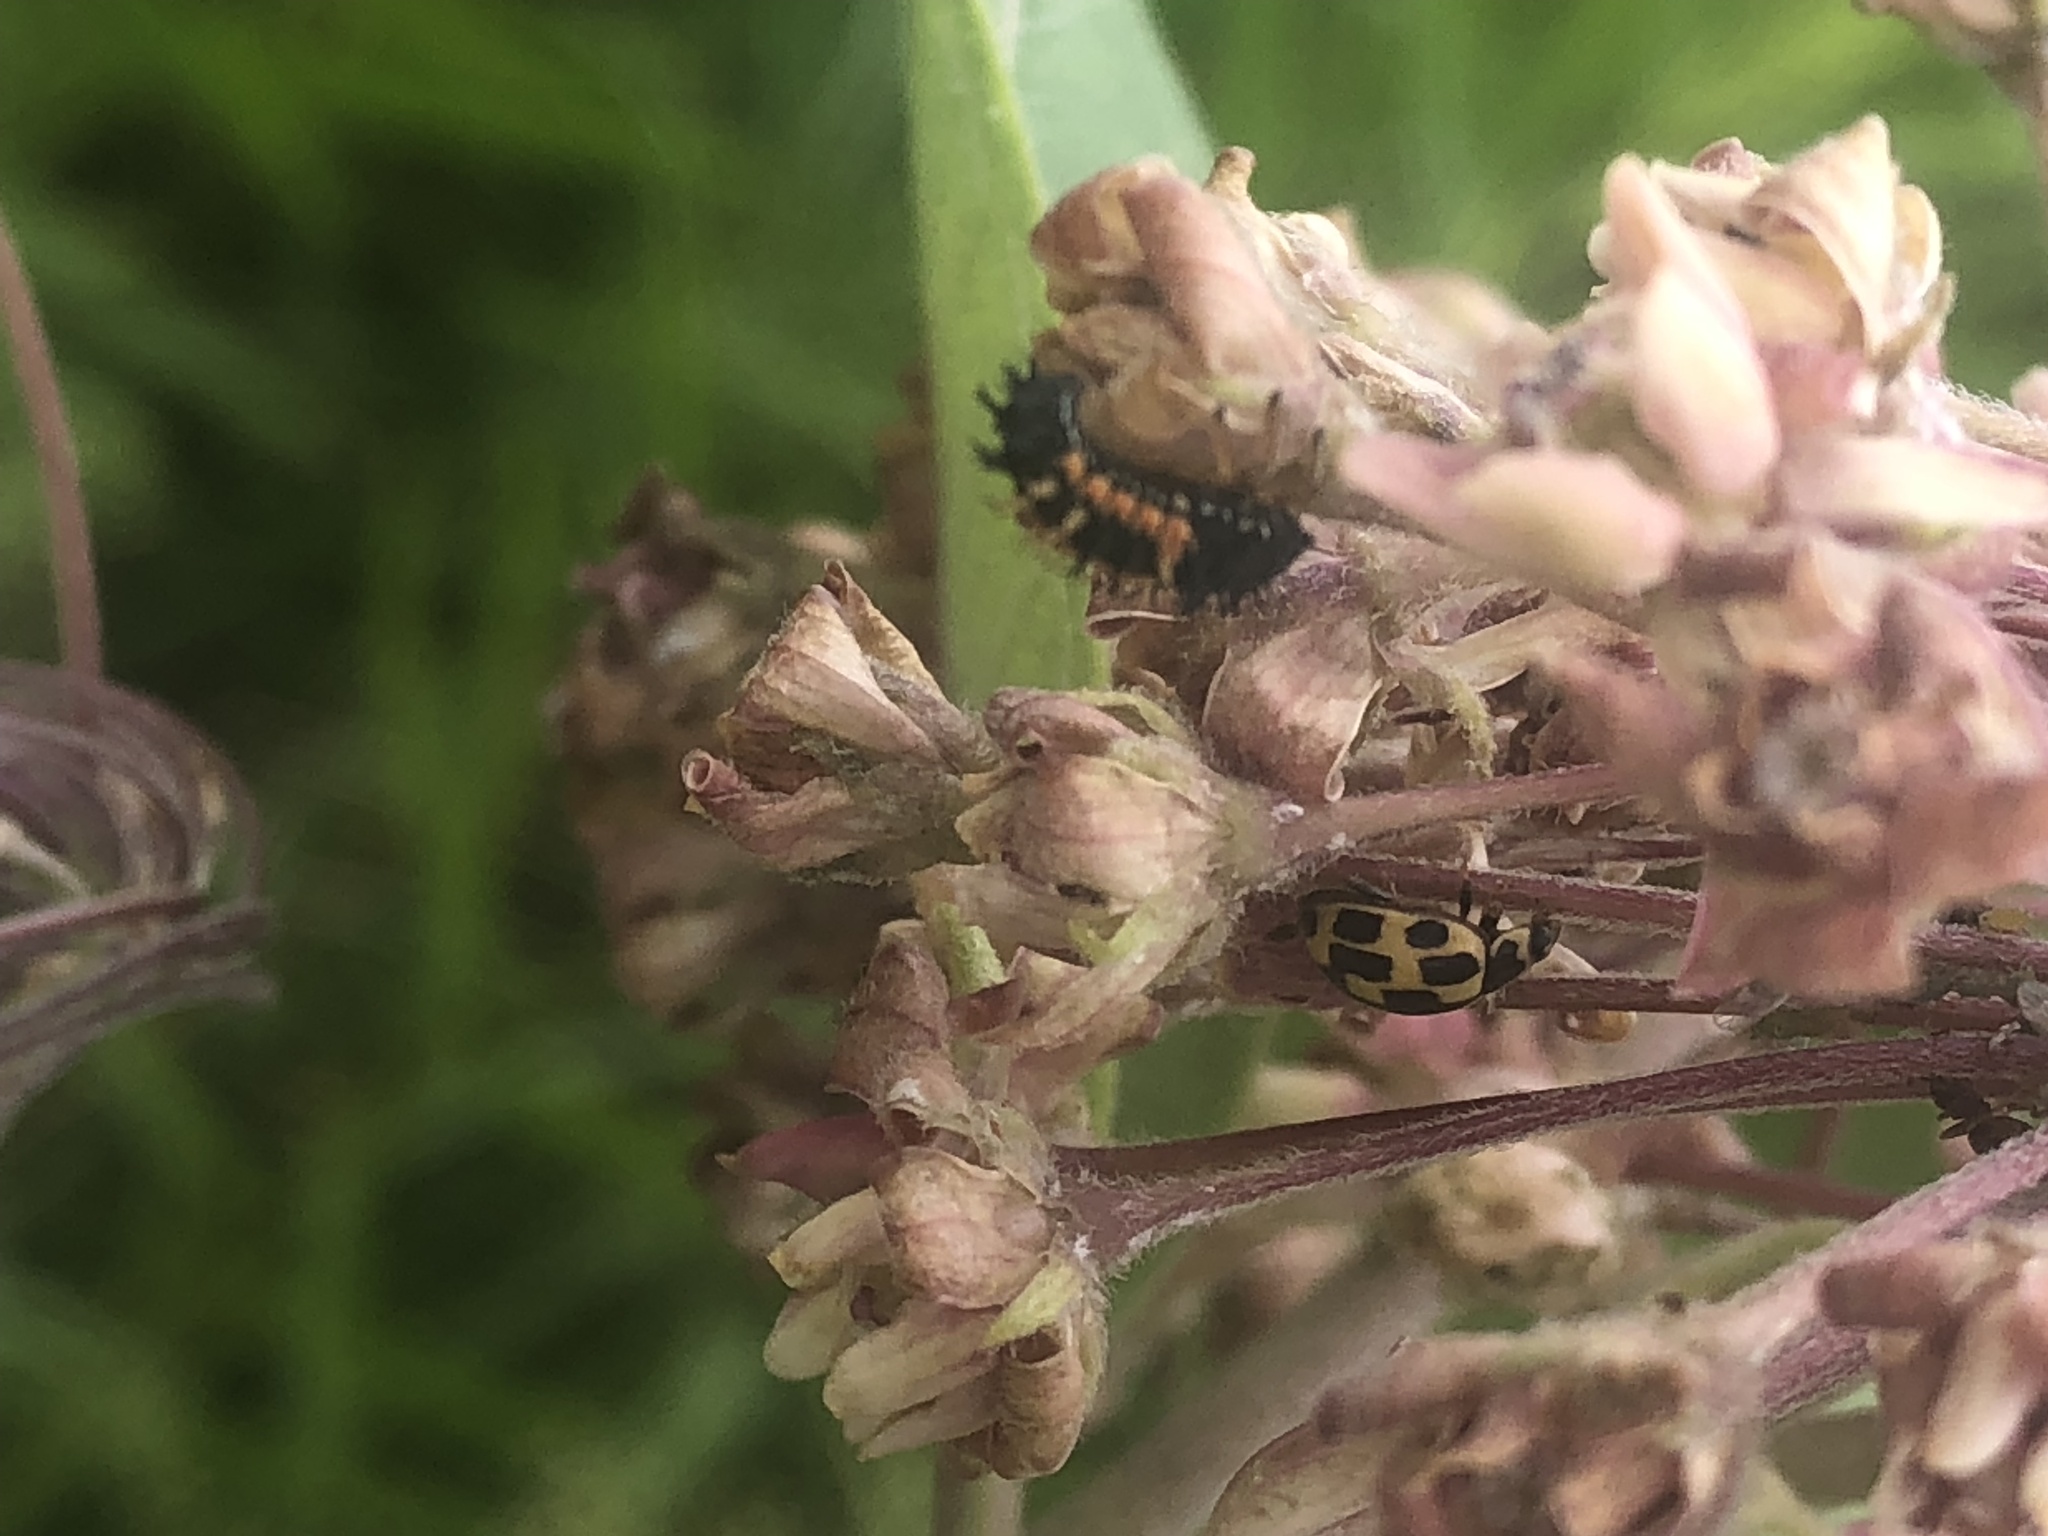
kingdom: Animalia
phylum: Arthropoda
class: Insecta
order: Coleoptera
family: Coccinellidae
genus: Propylaea
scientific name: Propylaea quatuordecimpunctata
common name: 14-spotted ladybird beetle
